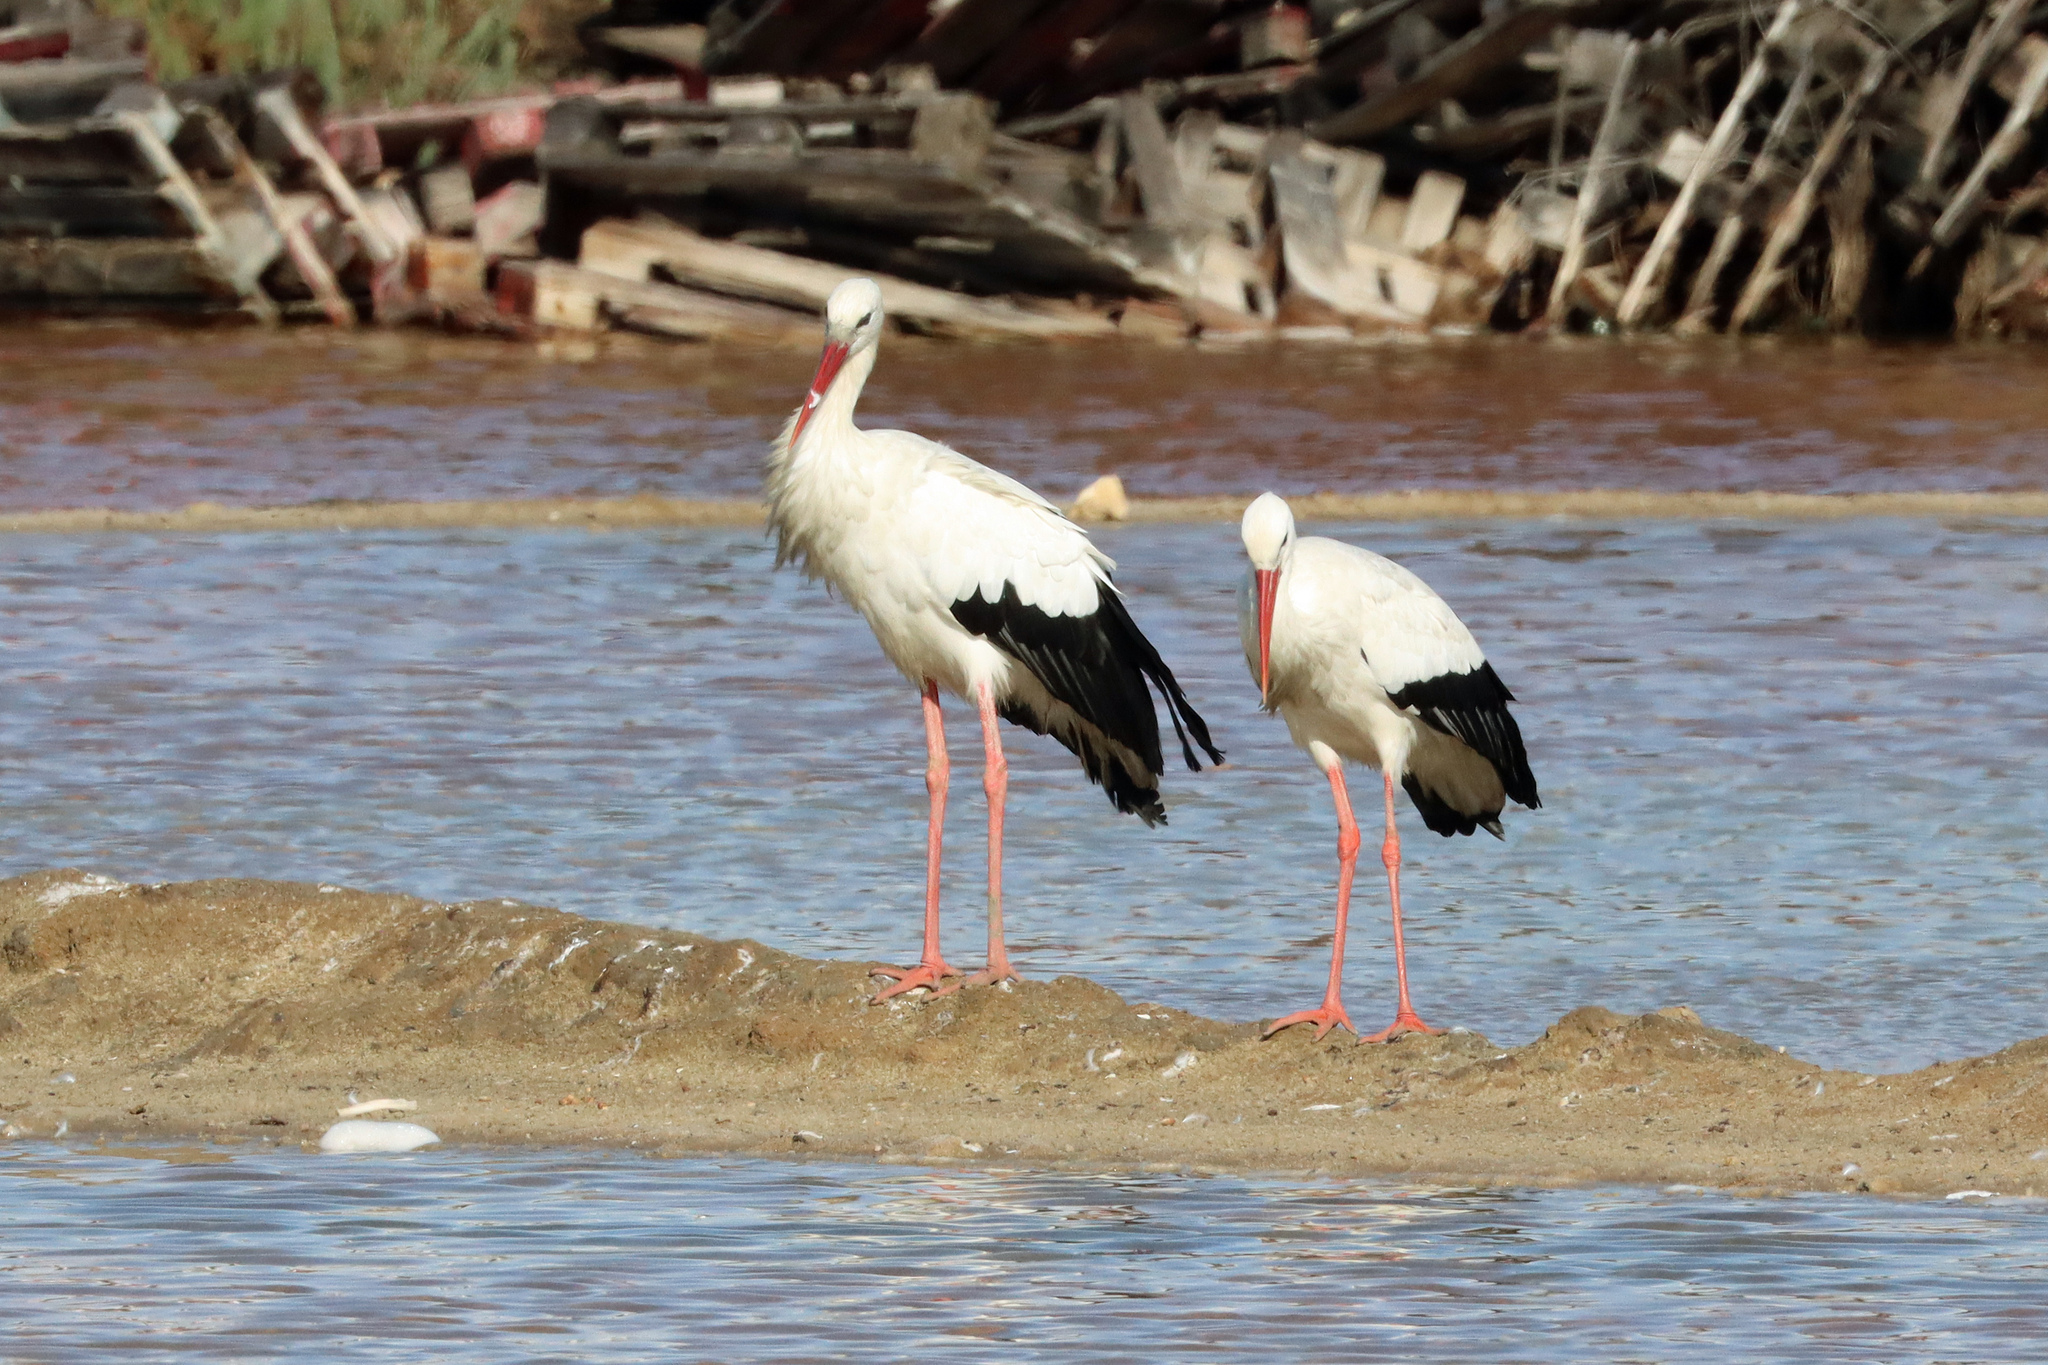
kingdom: Animalia
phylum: Chordata
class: Aves
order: Ciconiiformes
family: Ciconiidae
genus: Ciconia
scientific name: Ciconia ciconia
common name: White stork
